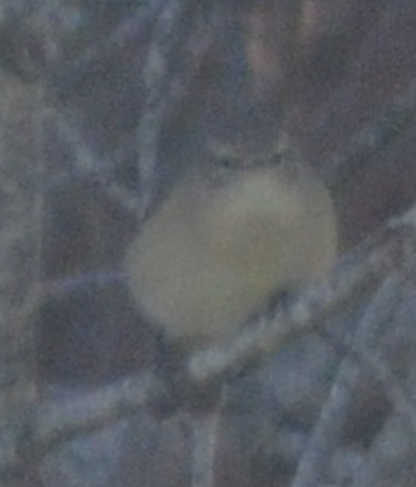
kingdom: Animalia
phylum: Chordata
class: Aves
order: Passeriformes
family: Phylloscopidae
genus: Phylloscopus
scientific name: Phylloscopus collybita
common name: Common chiffchaff
